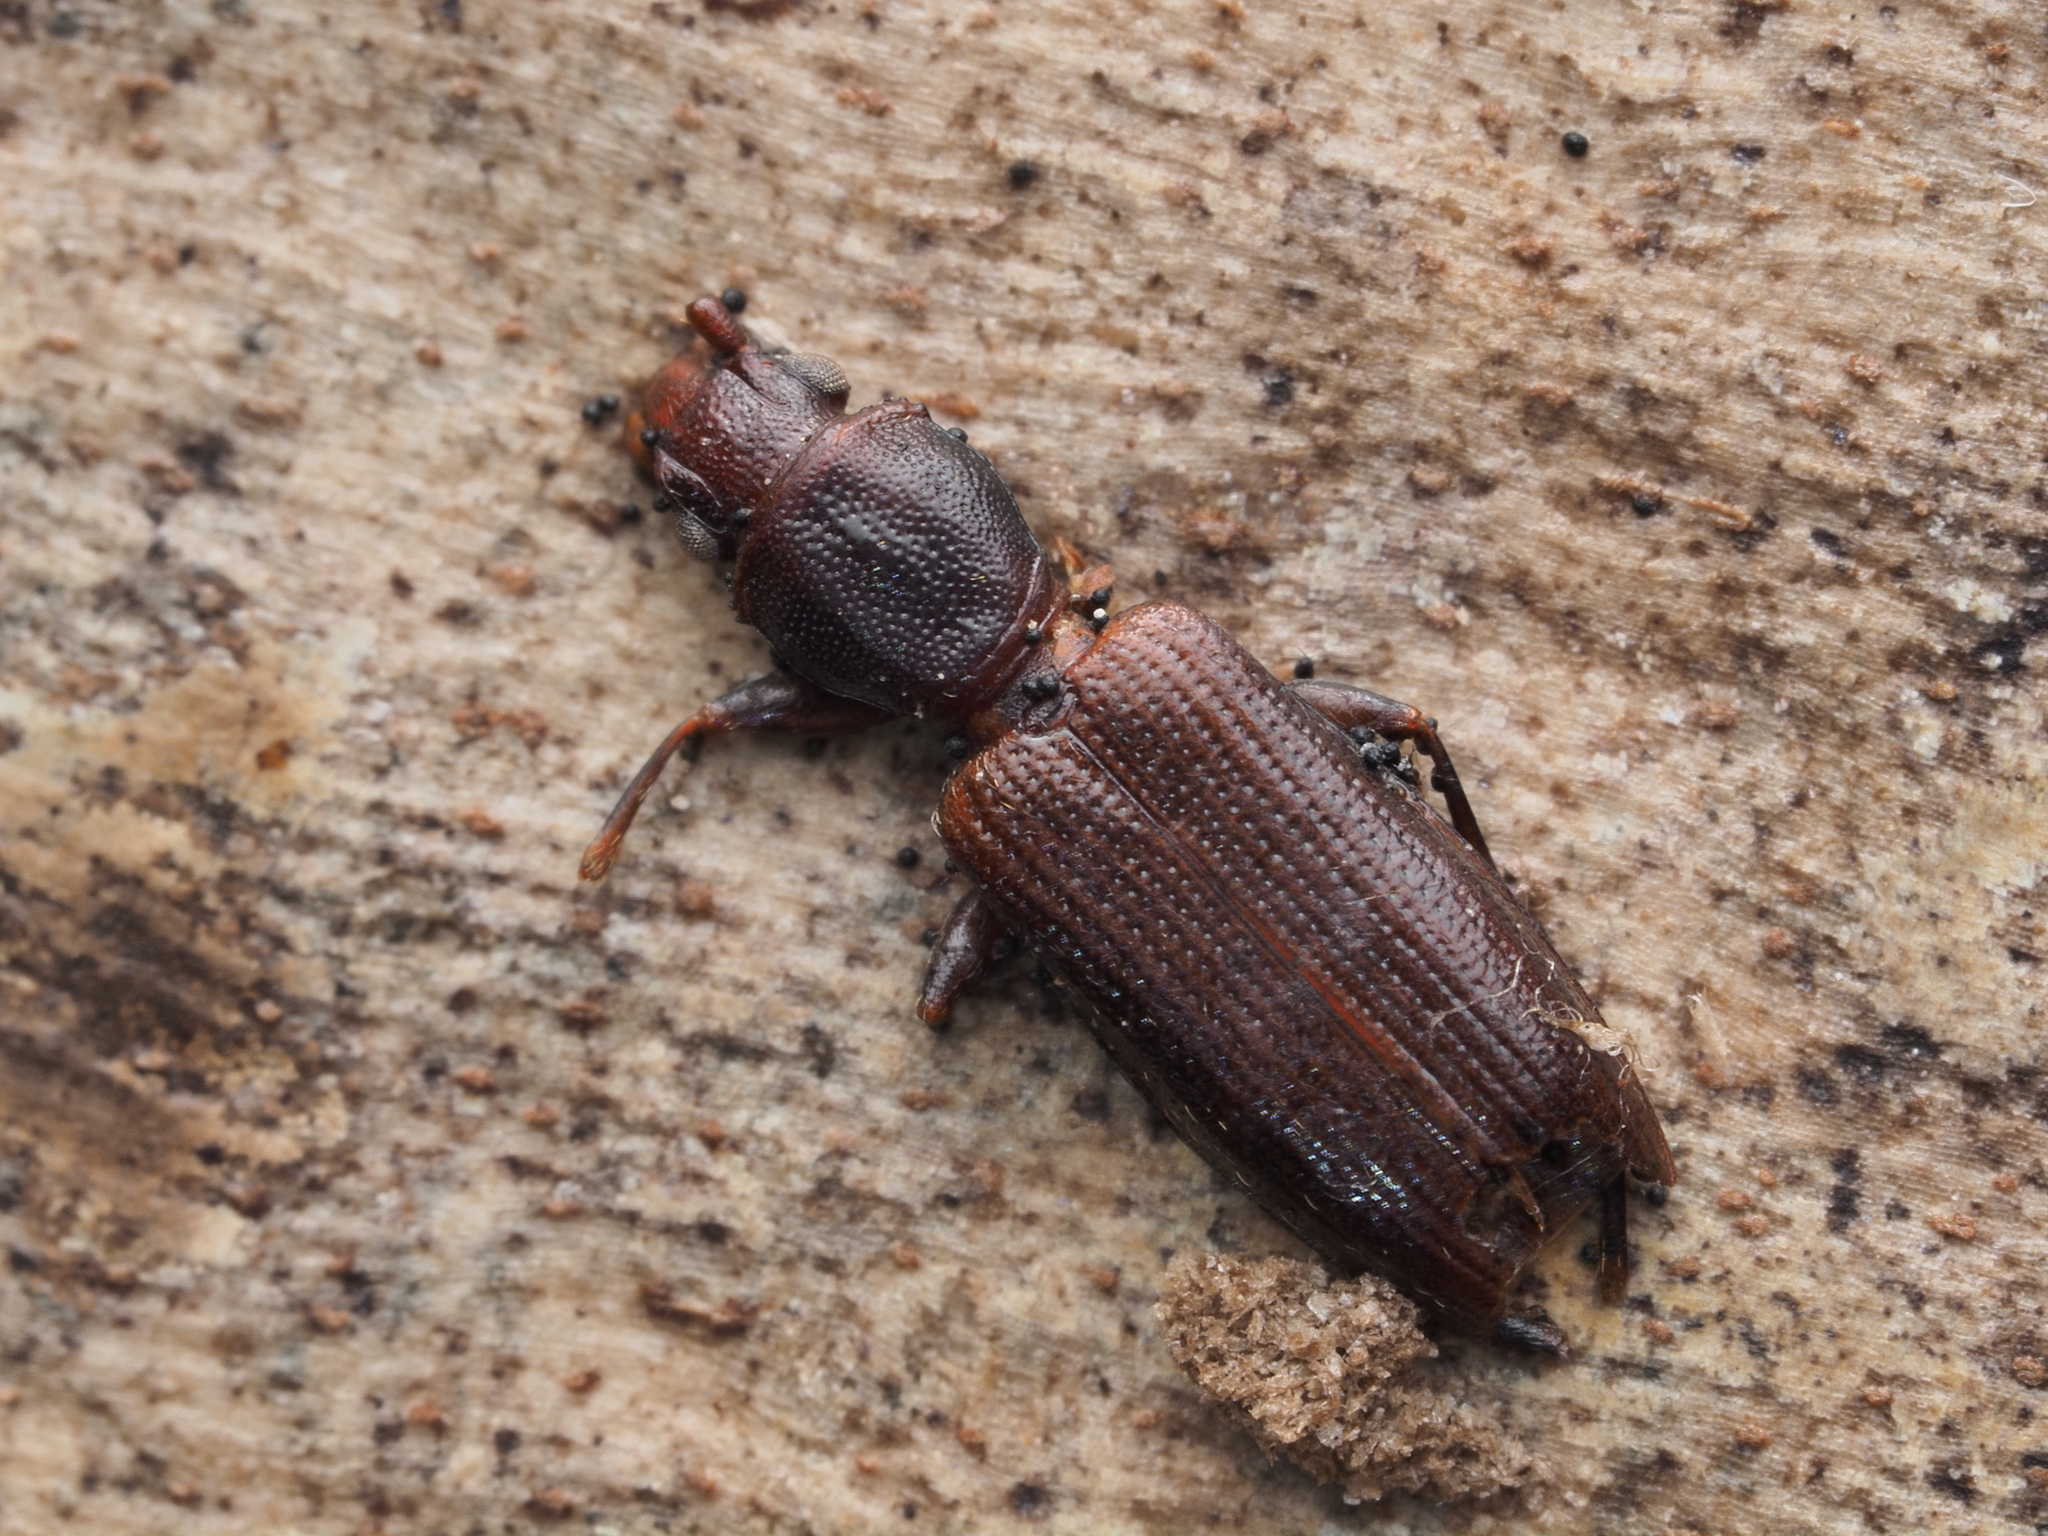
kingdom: Animalia
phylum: Arthropoda
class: Insecta
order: Coleoptera
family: Silvanidae
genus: Cryptamorpha
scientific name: Cryptamorpha brevicornis
